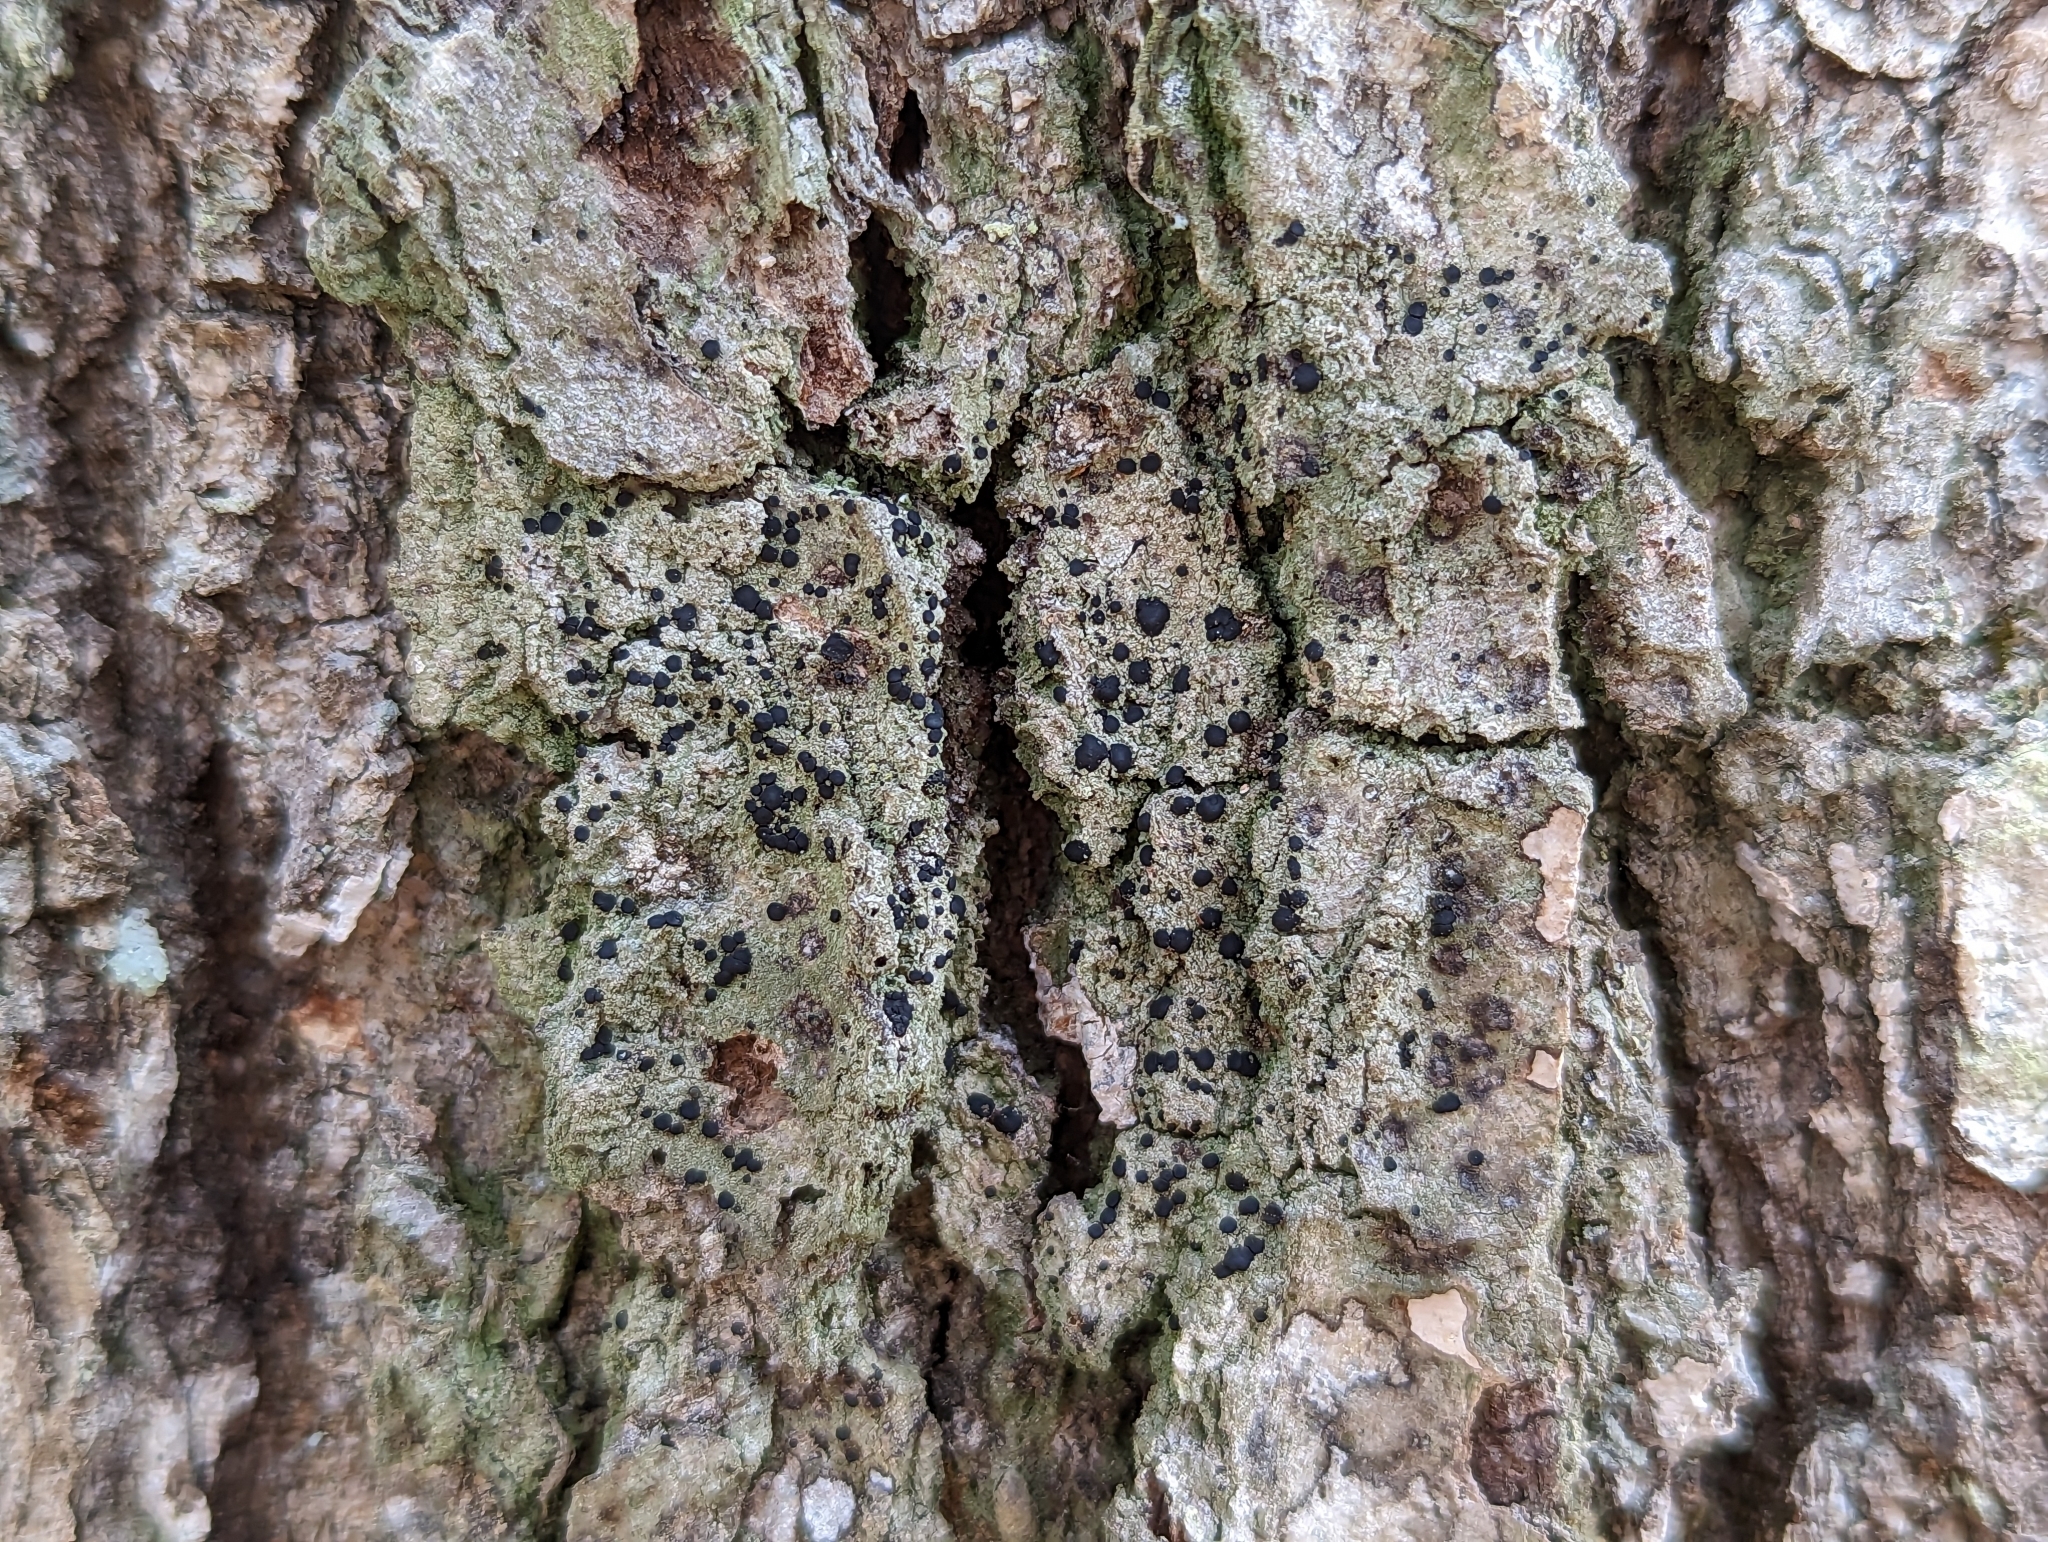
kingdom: Fungi
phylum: Ascomycota
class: Lecanoromycetes
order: Lecanorales
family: Ramalinaceae
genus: Bacidia
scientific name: Bacidia schweinitzii
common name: Surprise lichen
